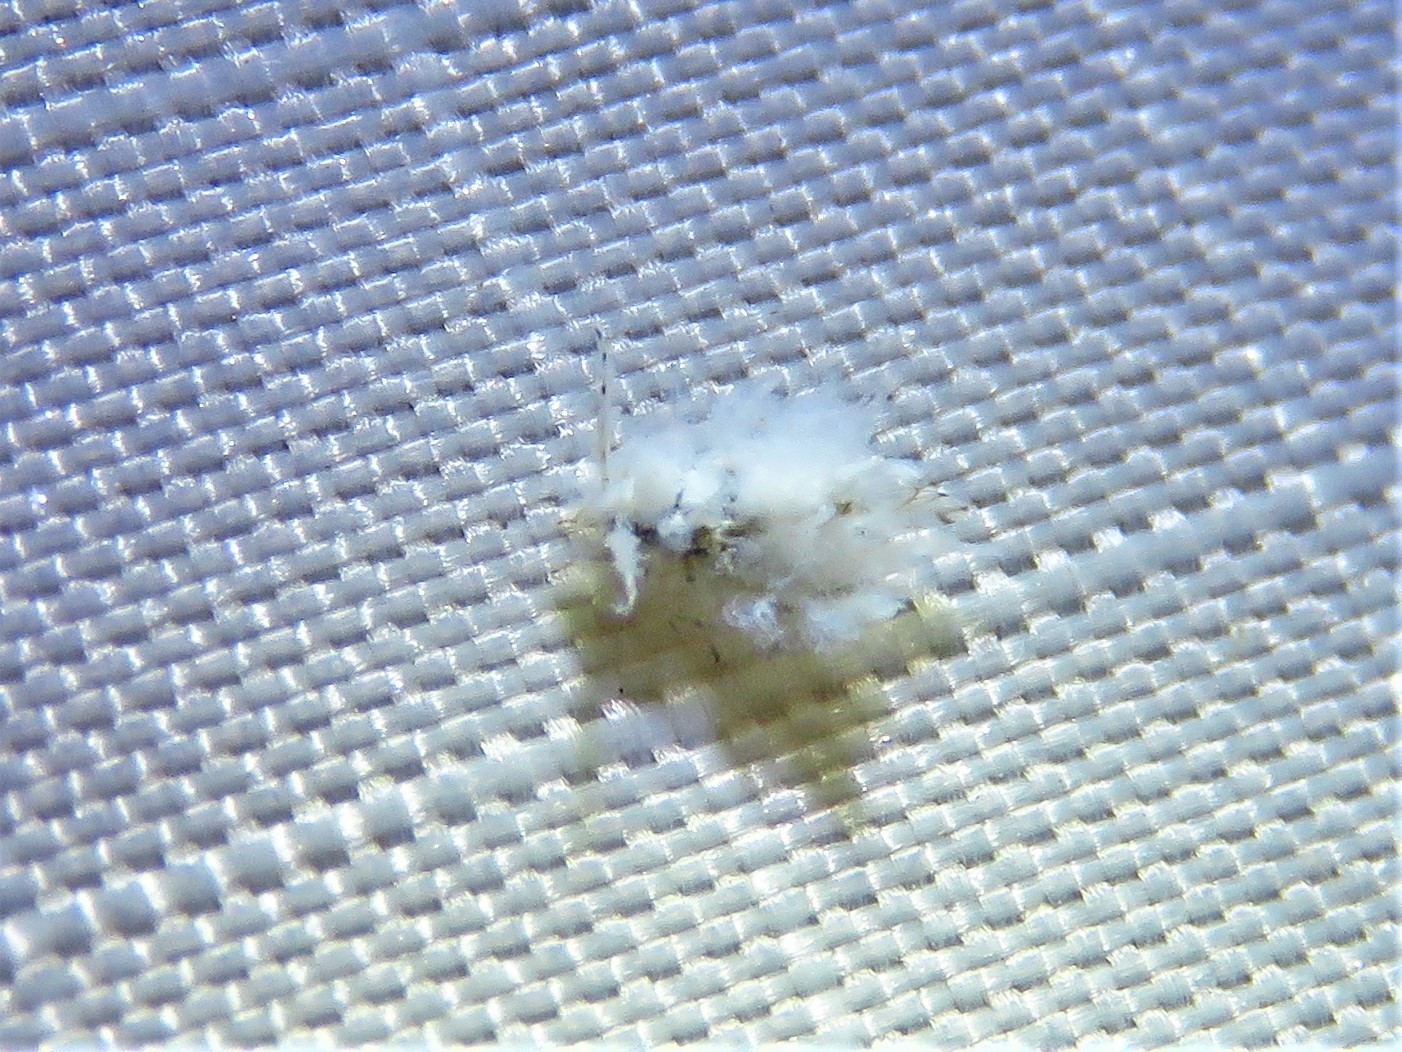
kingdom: Animalia
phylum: Arthropoda
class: Insecta
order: Hemiptera
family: Aphididae
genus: Shivaphis
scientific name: Shivaphis celti
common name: Asian wooly hackberry aphid
